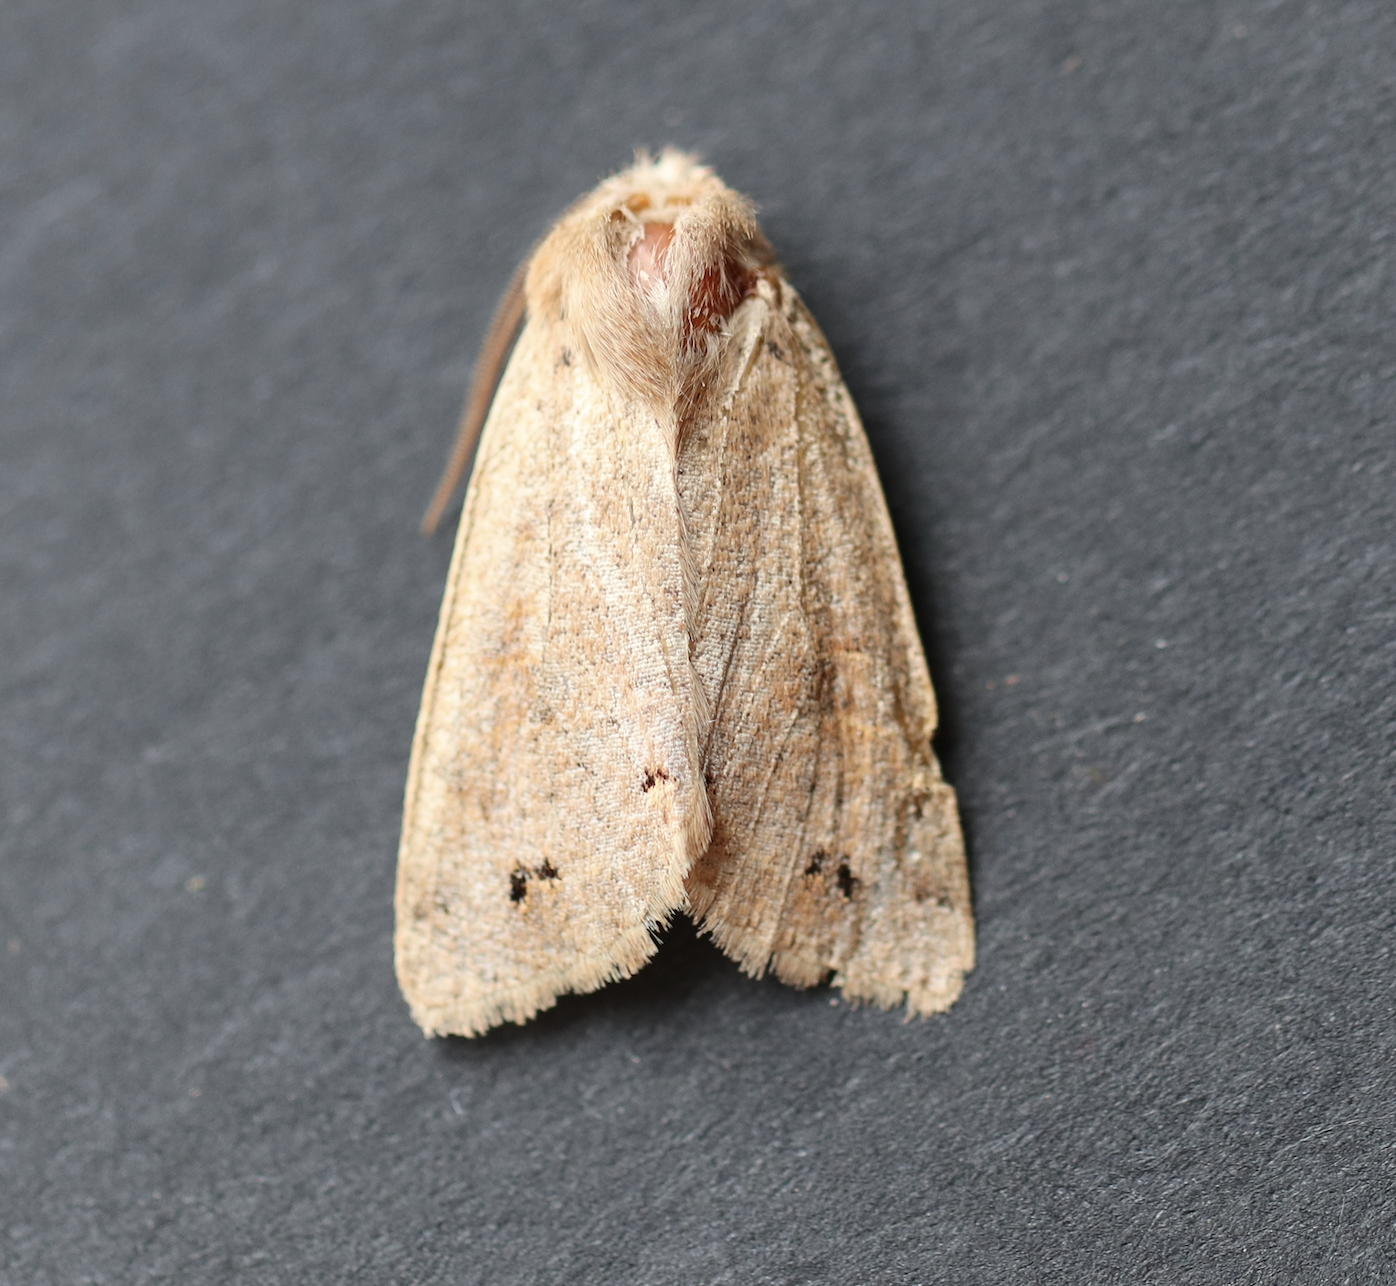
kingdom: Animalia
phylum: Arthropoda
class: Insecta
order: Lepidoptera
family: Noctuidae
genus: Anorthoa
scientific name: Anorthoa munda
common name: Twin-spotted quaker
